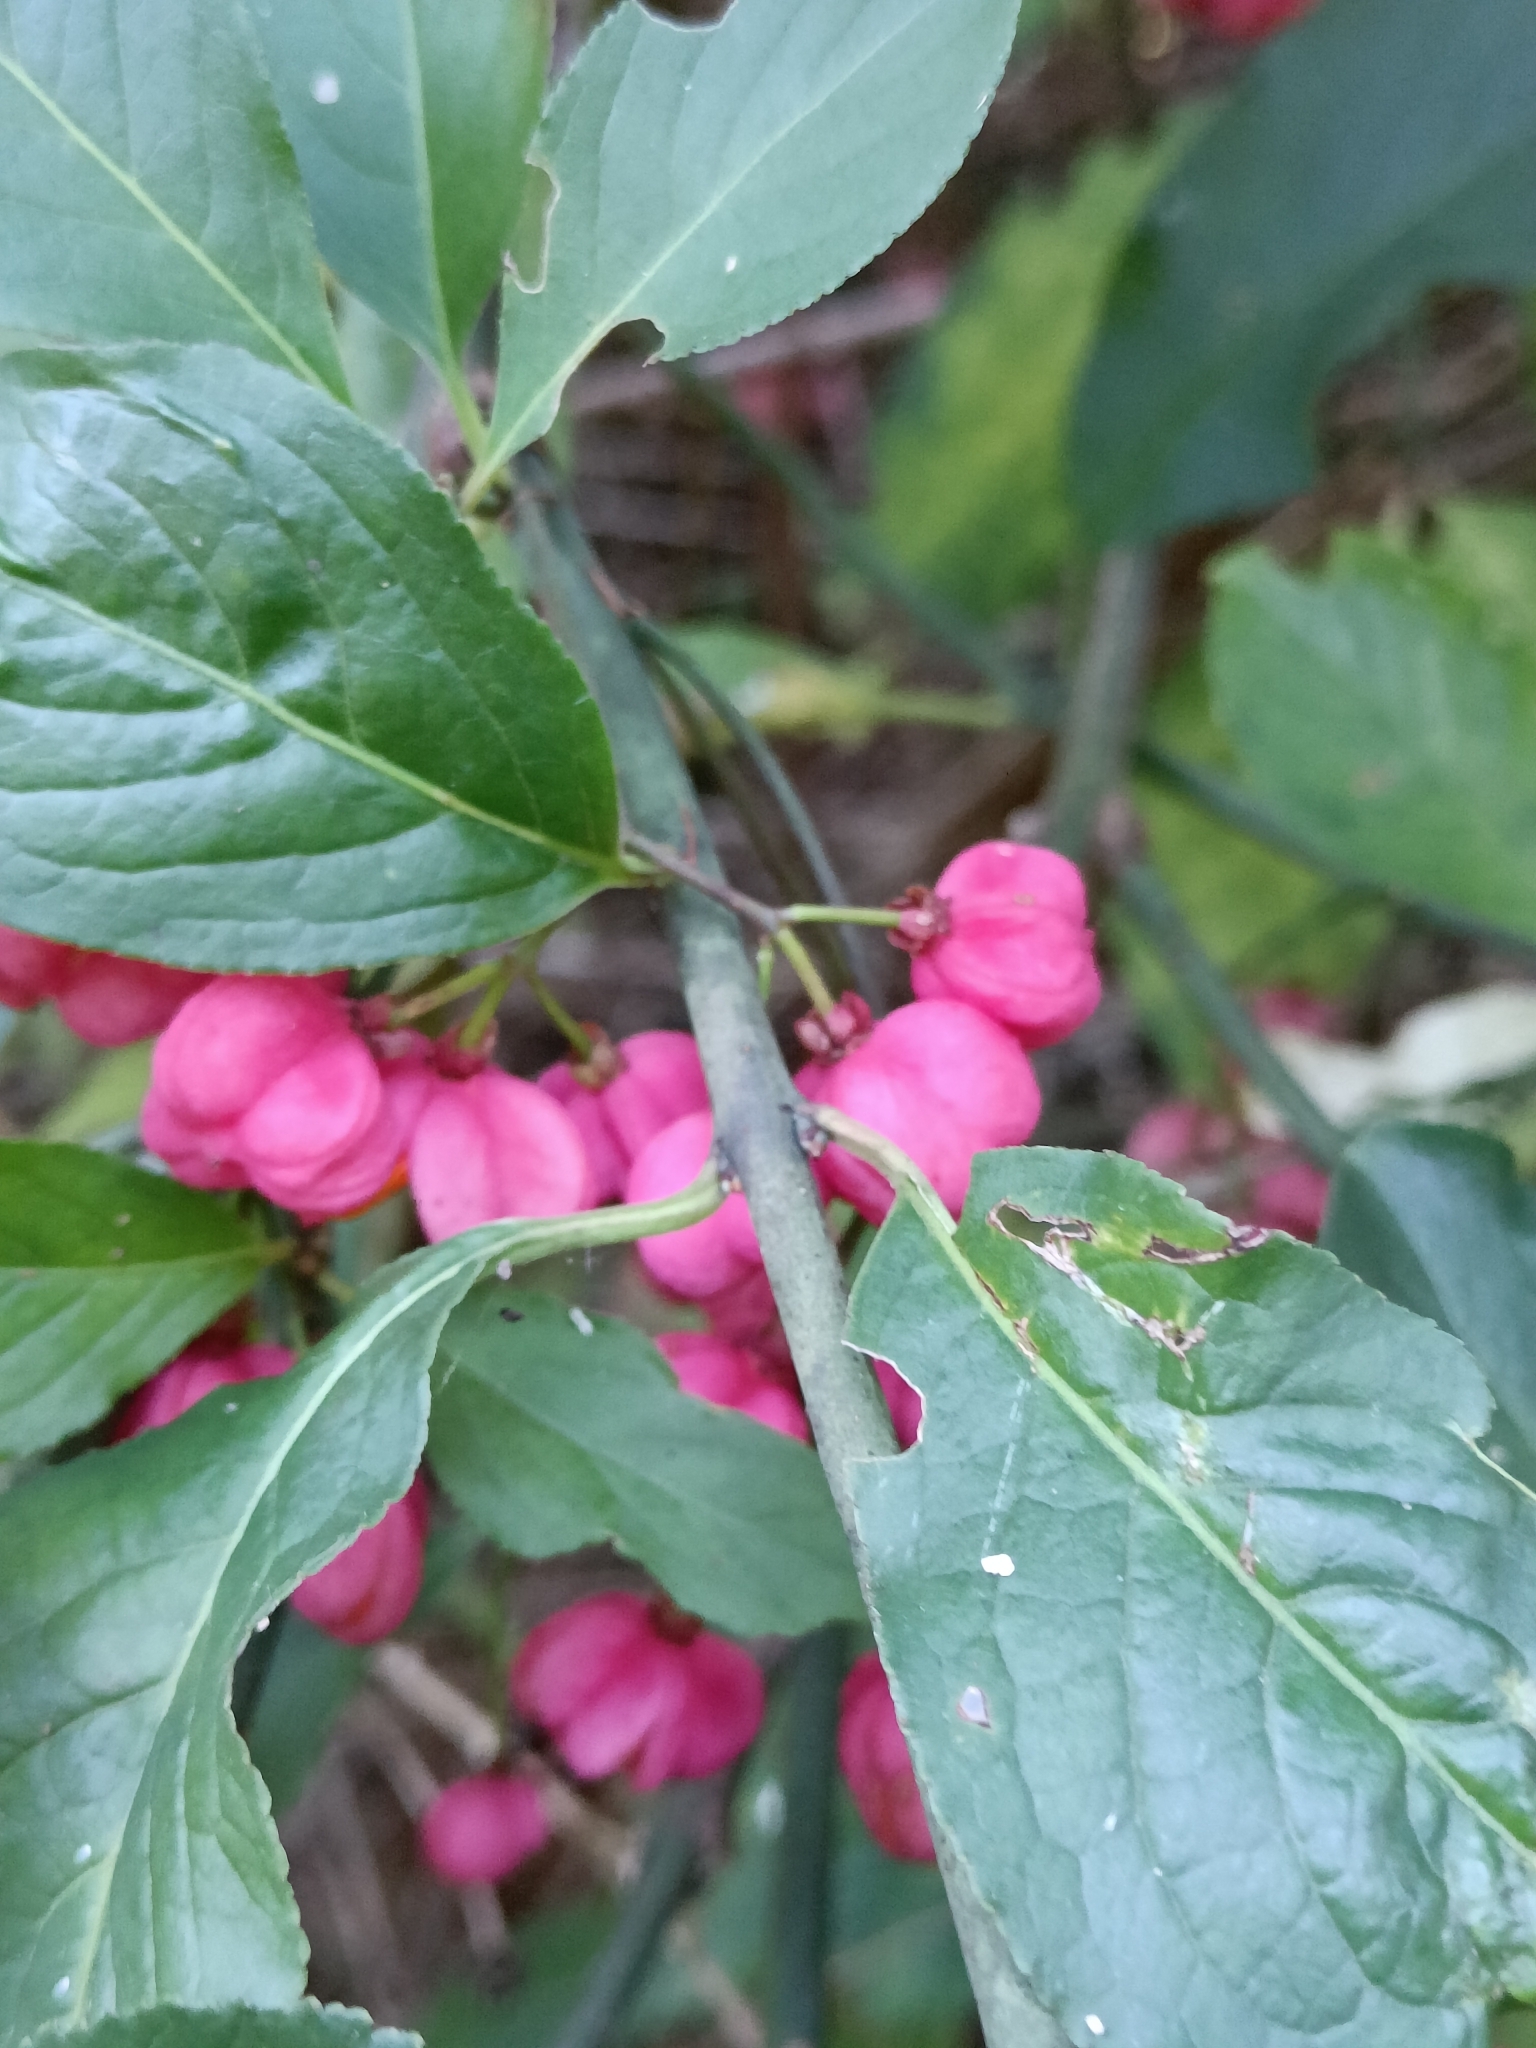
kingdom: Plantae
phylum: Tracheophyta
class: Magnoliopsida
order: Celastrales
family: Celastraceae
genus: Euonymus
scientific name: Euonymus europaeus
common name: Spindle
